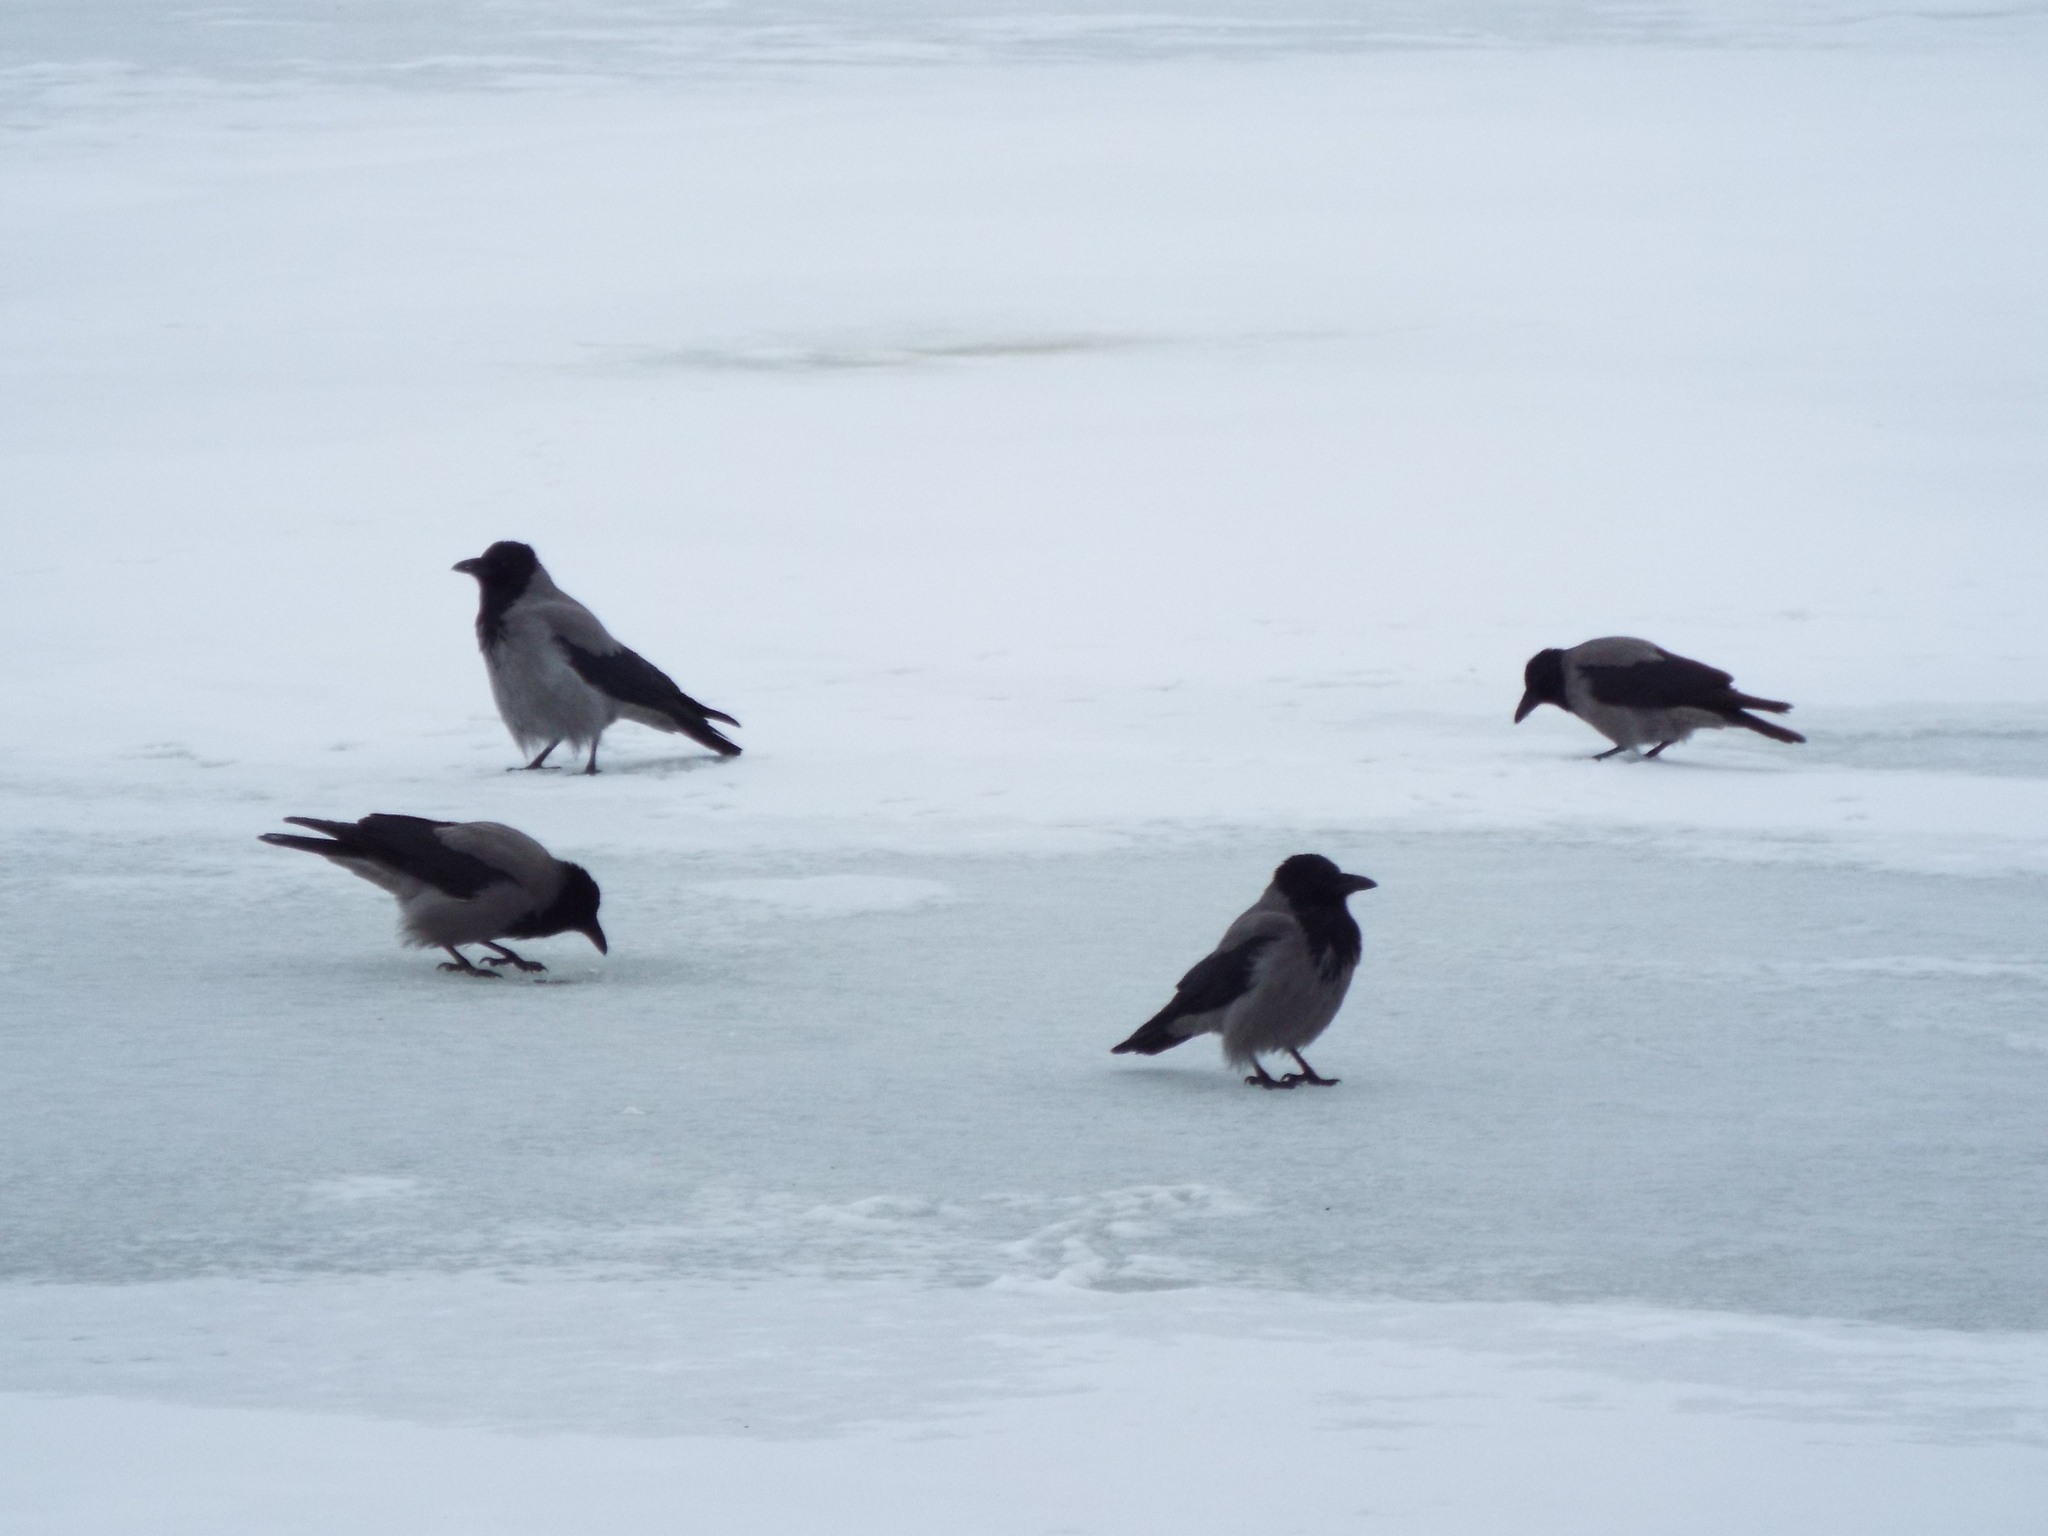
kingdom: Animalia
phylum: Chordata
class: Aves
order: Passeriformes
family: Corvidae
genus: Corvus
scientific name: Corvus cornix
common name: Hooded crow
